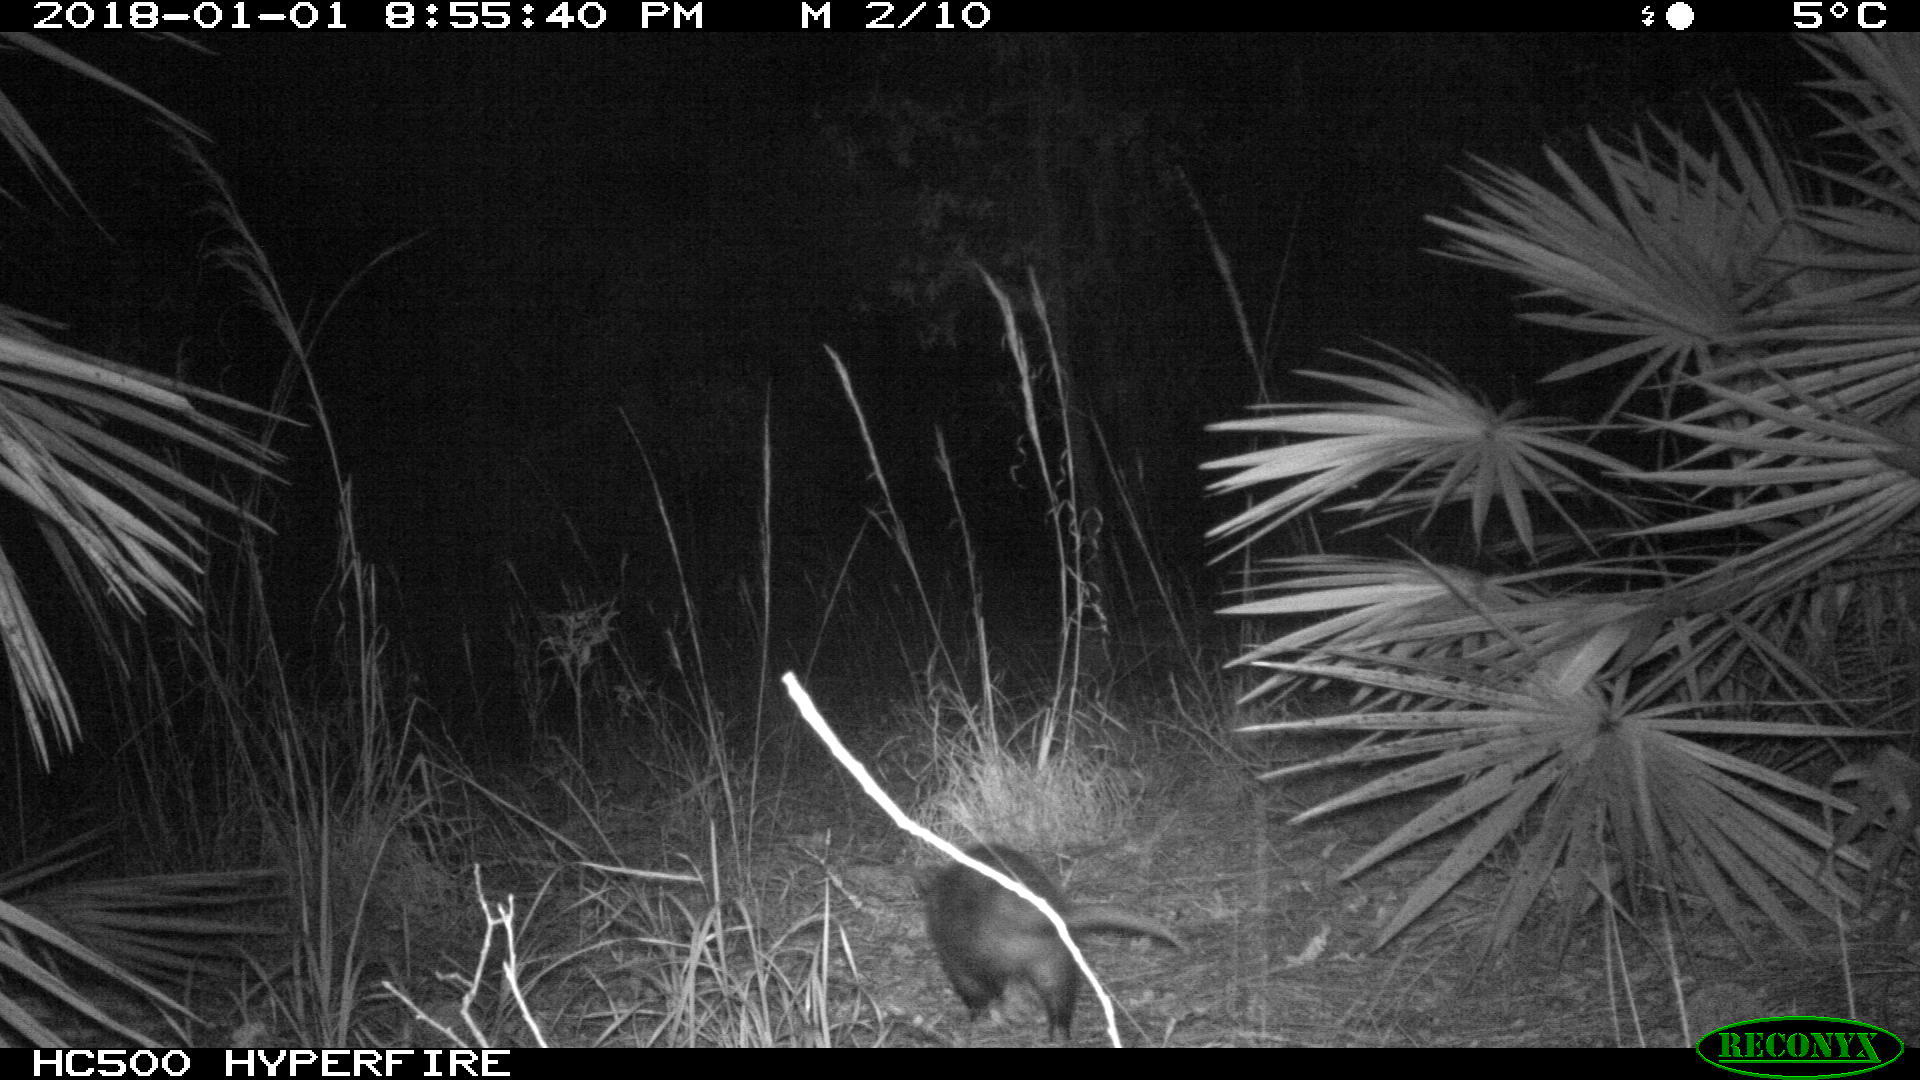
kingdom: Animalia
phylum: Chordata
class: Mammalia
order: Didelphimorphia
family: Didelphidae
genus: Didelphis
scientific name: Didelphis virginiana
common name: Virginia opossum
